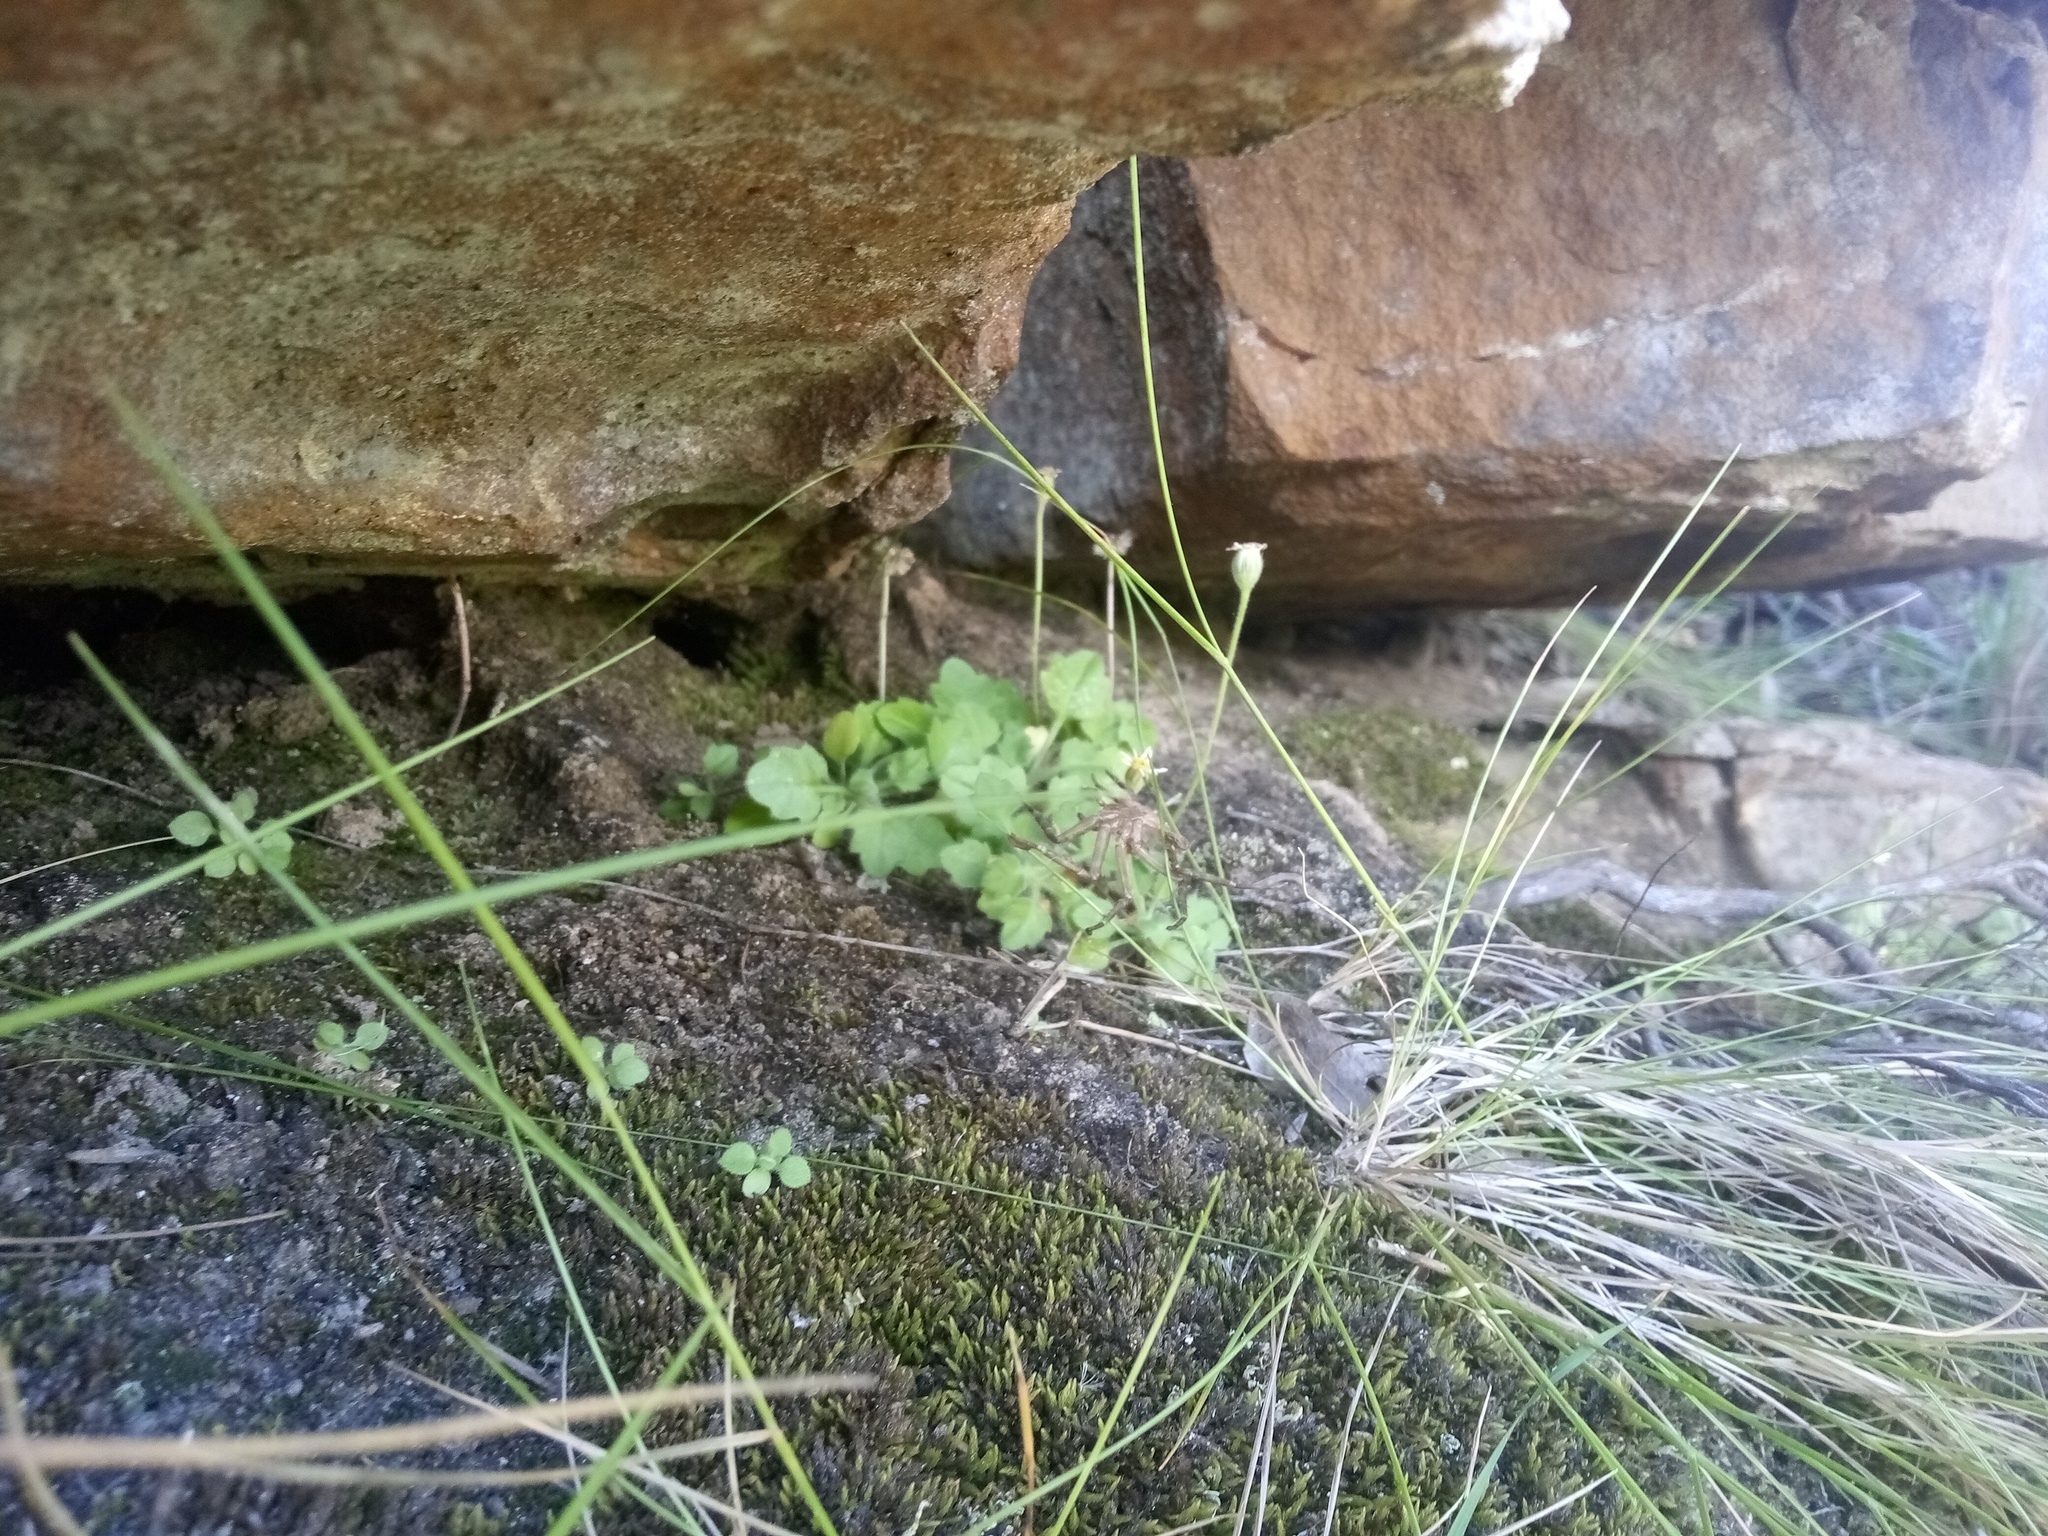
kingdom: Plantae
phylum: Tracheophyta
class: Magnoliopsida
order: Asterales
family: Asteraceae
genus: Felicia
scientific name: Felicia cymbalariae
